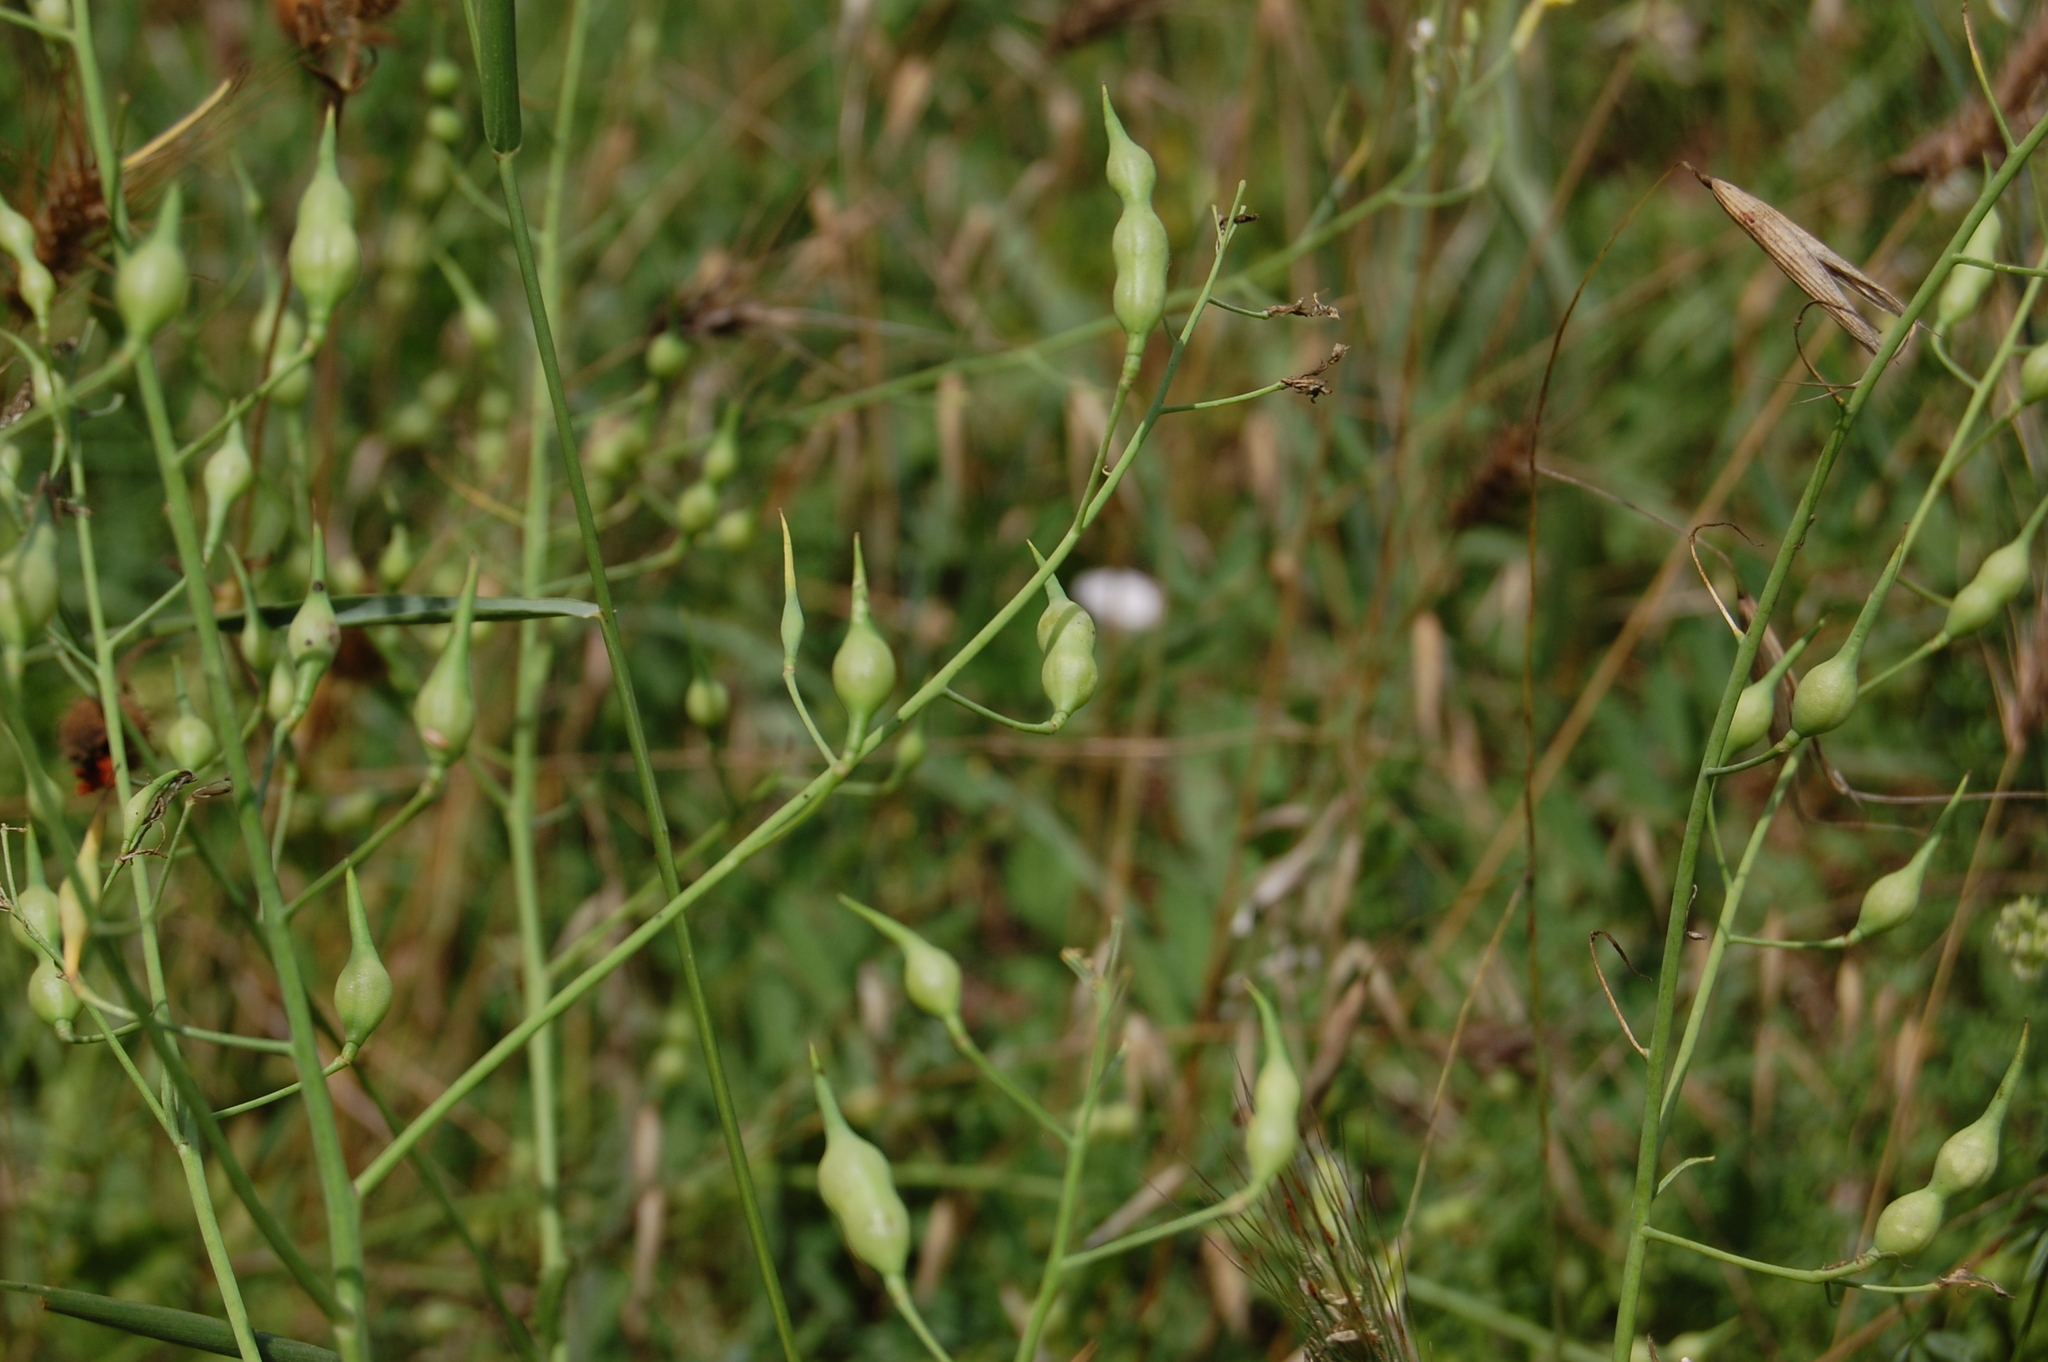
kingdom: Plantae
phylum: Tracheophyta
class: Magnoliopsida
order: Brassicales
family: Brassicaceae
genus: Raphanus
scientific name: Raphanus raphanistrum
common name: Wild radish
